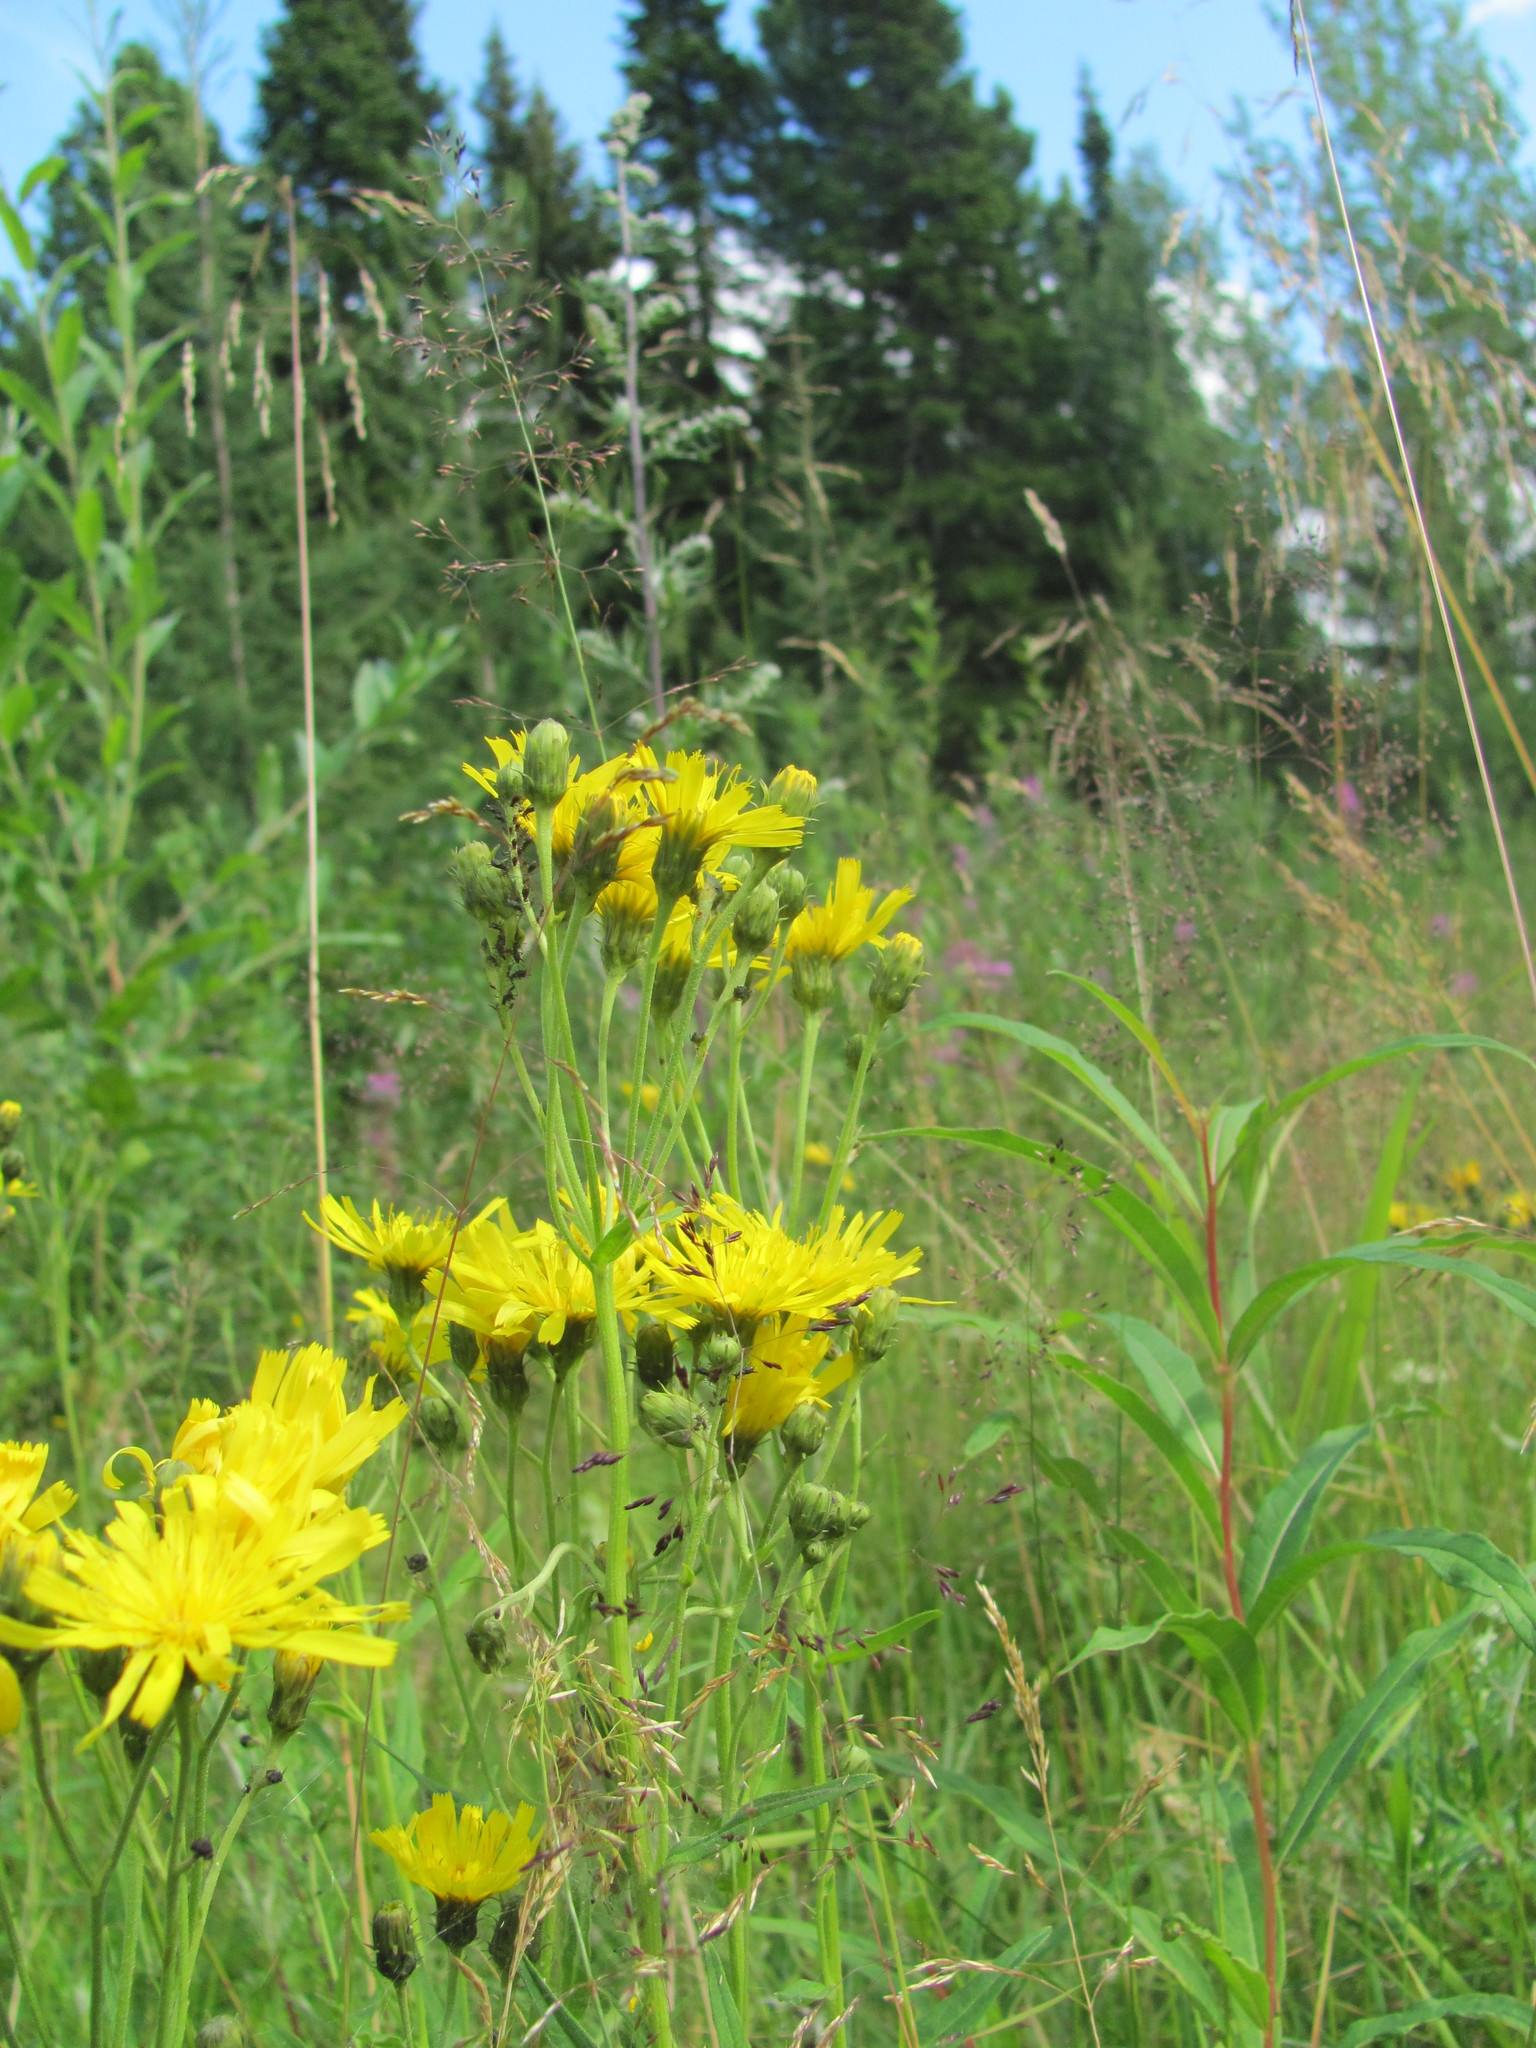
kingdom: Plantae
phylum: Tracheophyta
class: Magnoliopsida
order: Asterales
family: Asteraceae
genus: Hieracium
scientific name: Hieracium umbellatum
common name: Northern hawkweed
